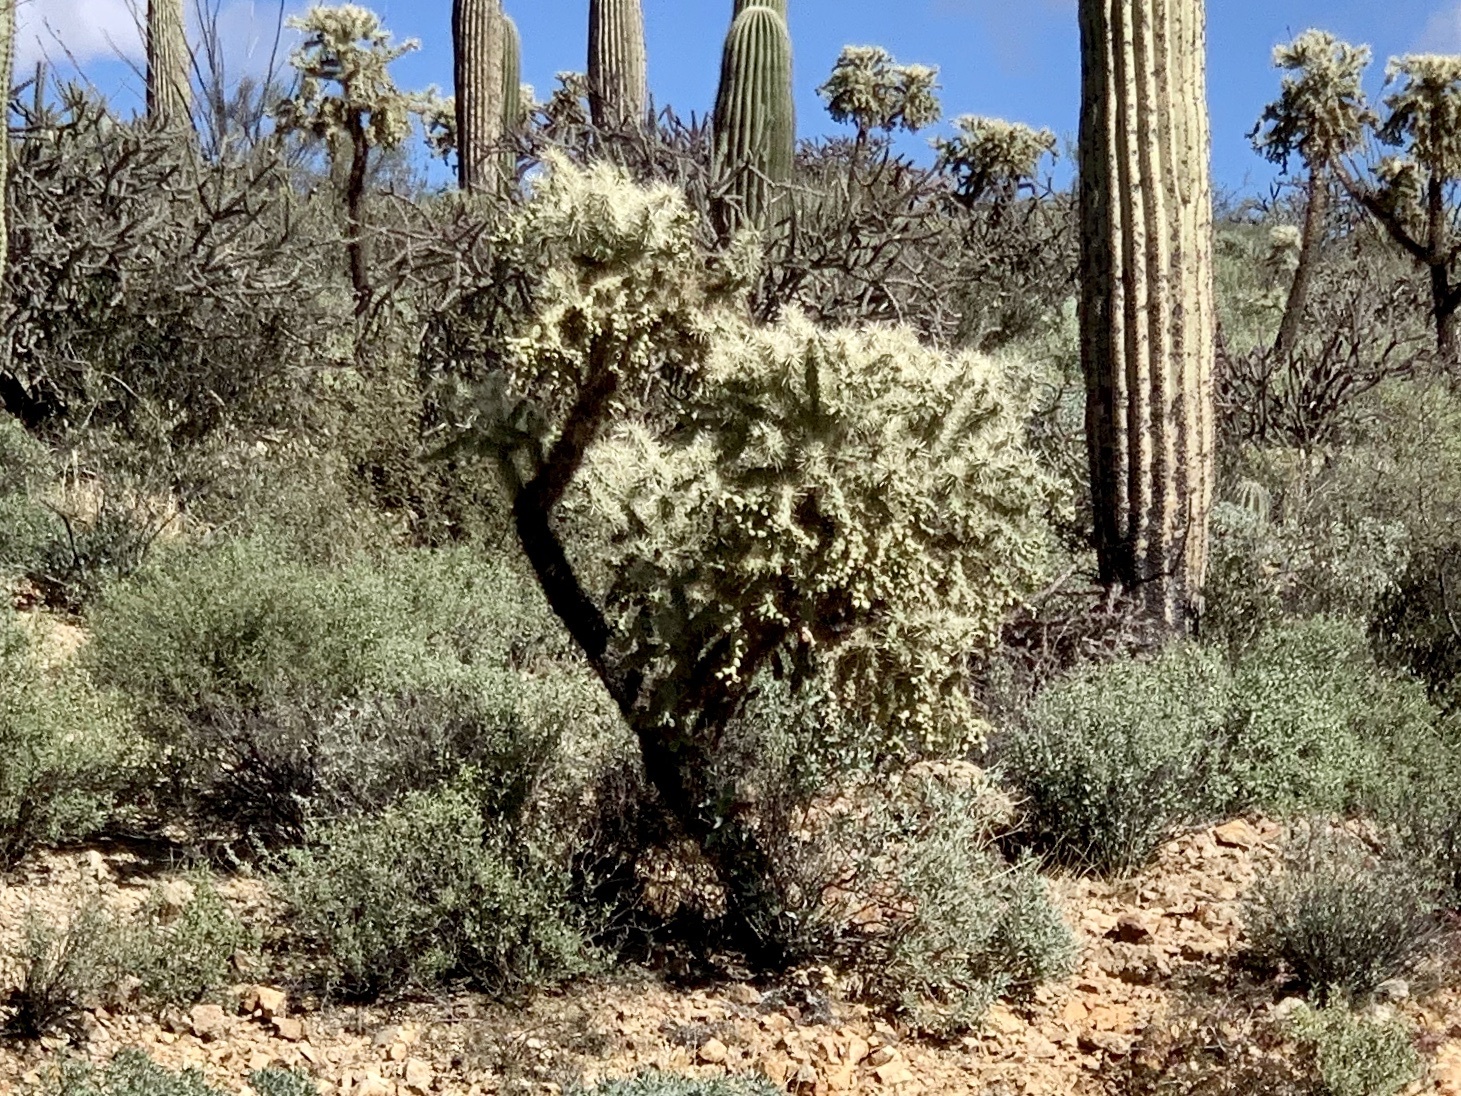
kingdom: Plantae
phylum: Tracheophyta
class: Magnoliopsida
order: Caryophyllales
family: Cactaceae
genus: Cylindropuntia
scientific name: Cylindropuntia fulgida
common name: Jumping cholla
